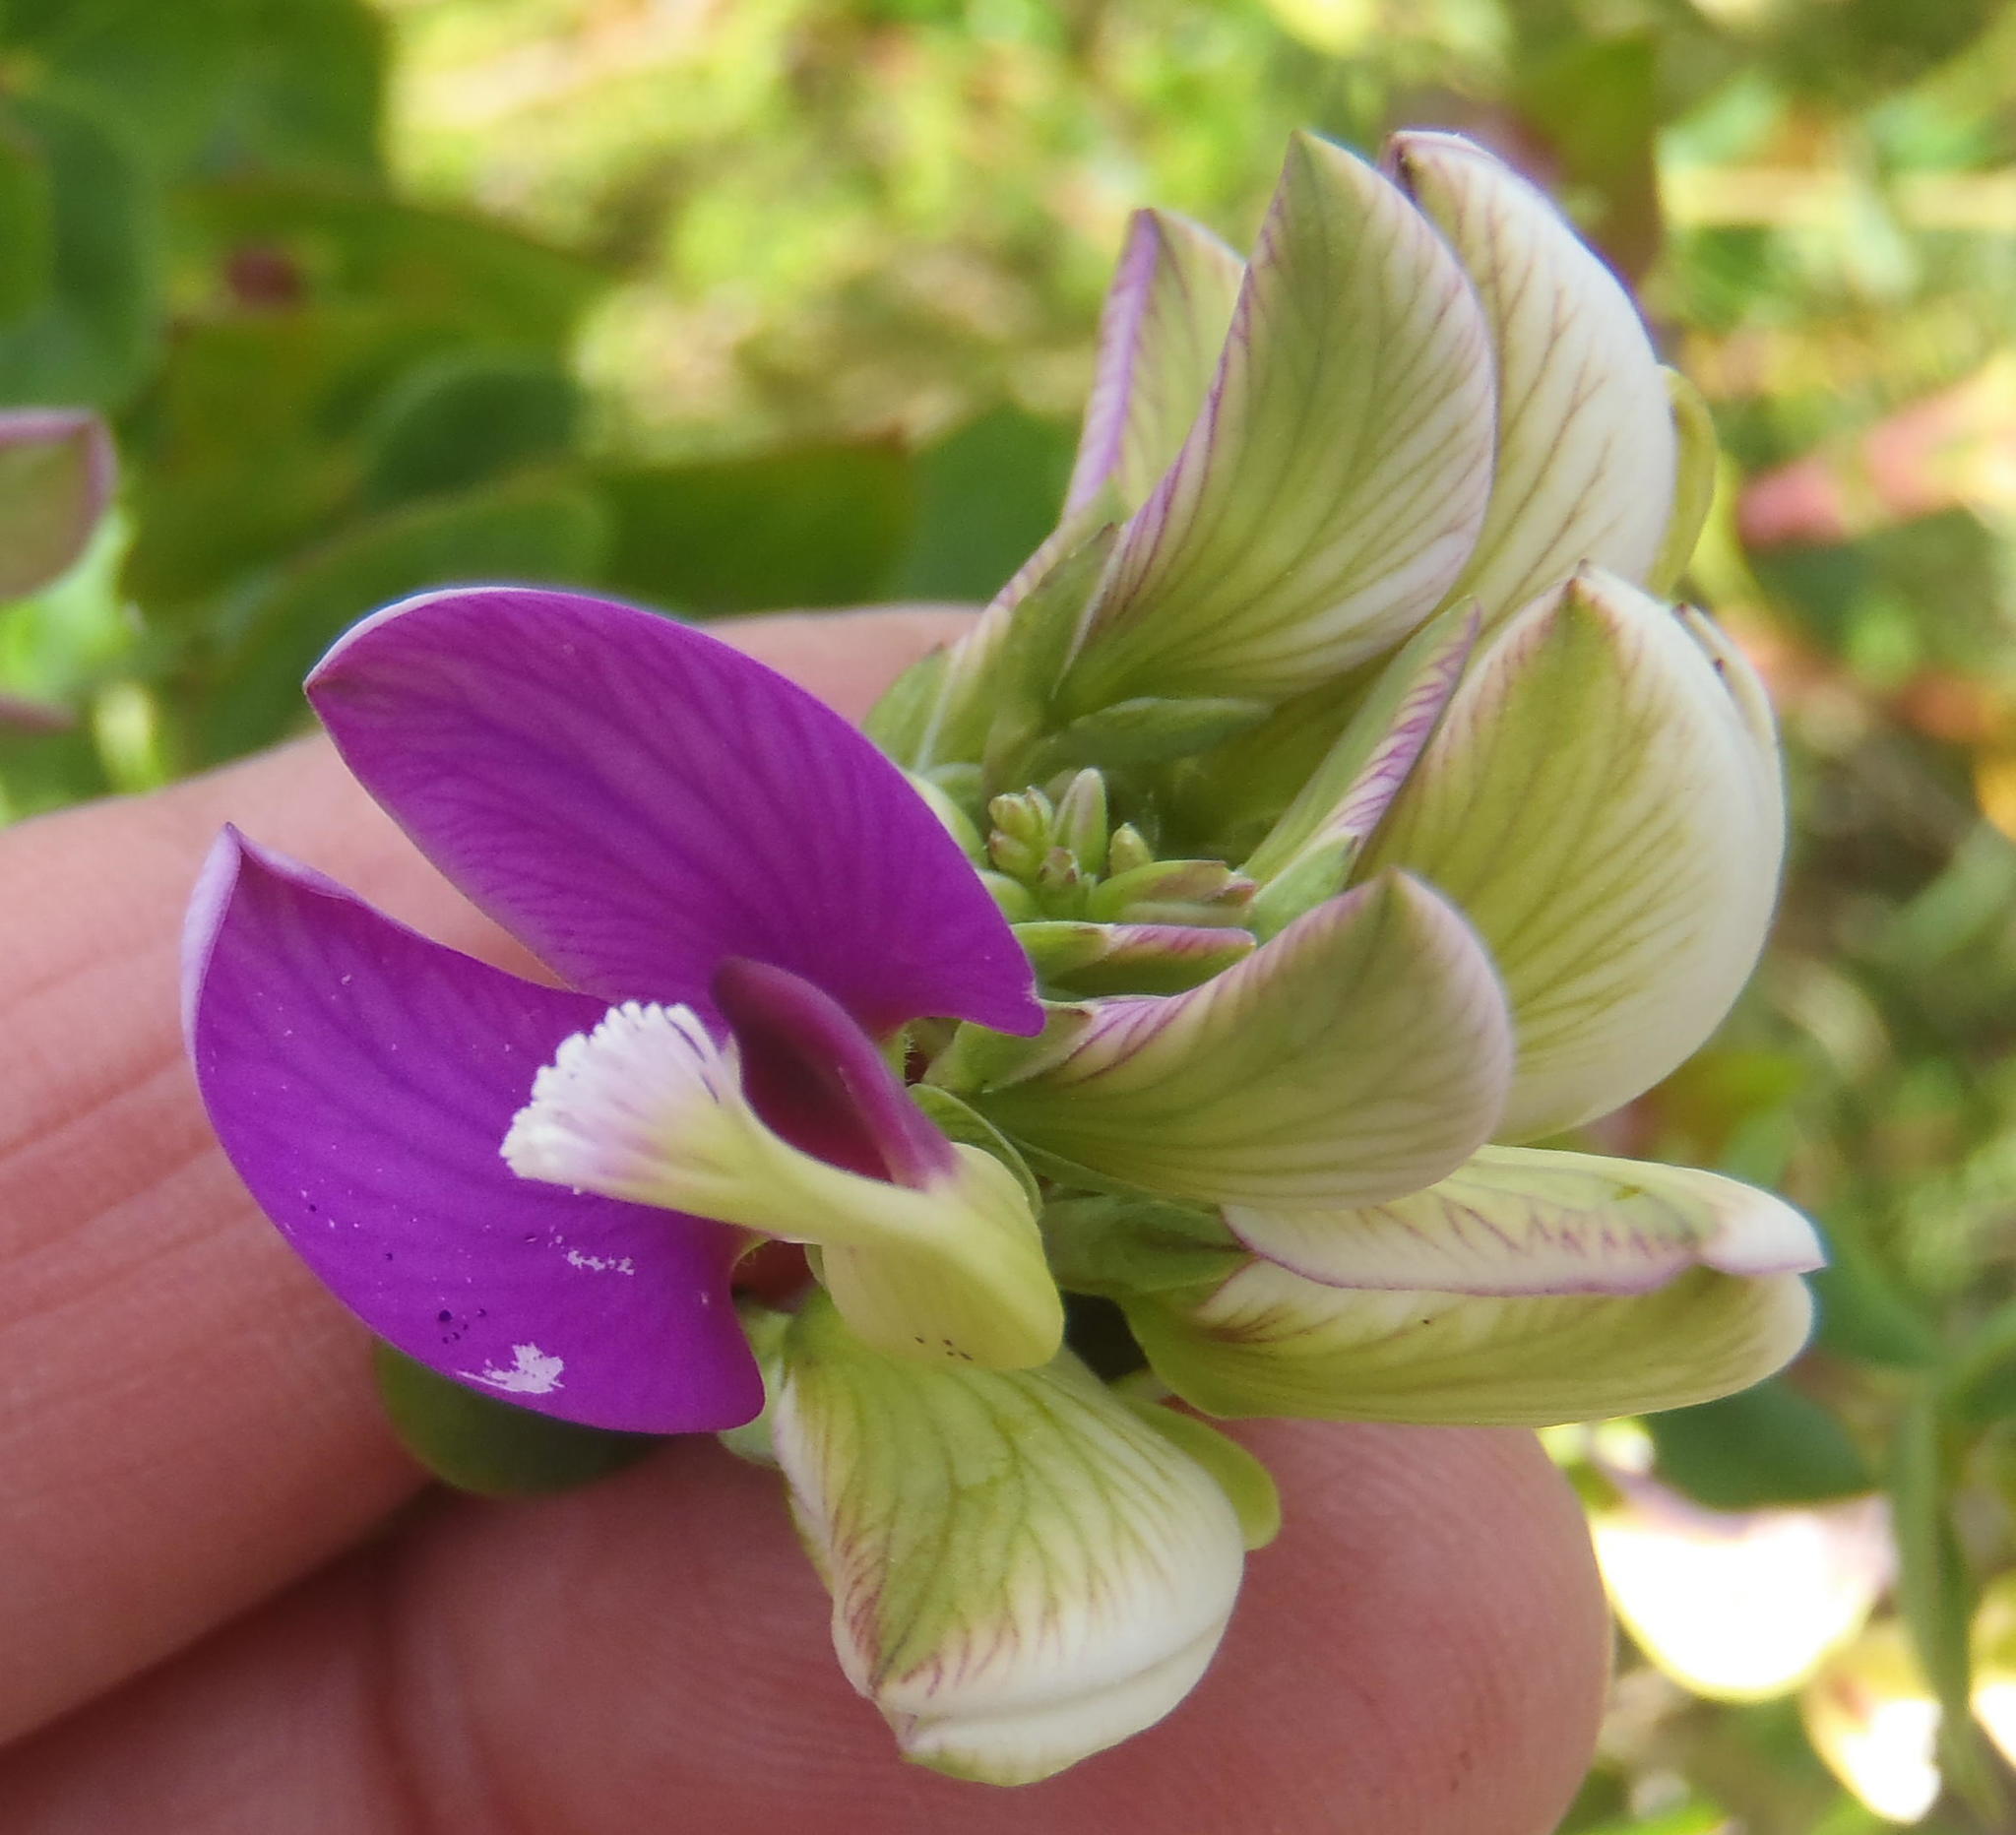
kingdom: Plantae
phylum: Tracheophyta
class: Magnoliopsida
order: Fabales
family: Polygalaceae
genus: Polygala
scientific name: Polygala fruticosa
